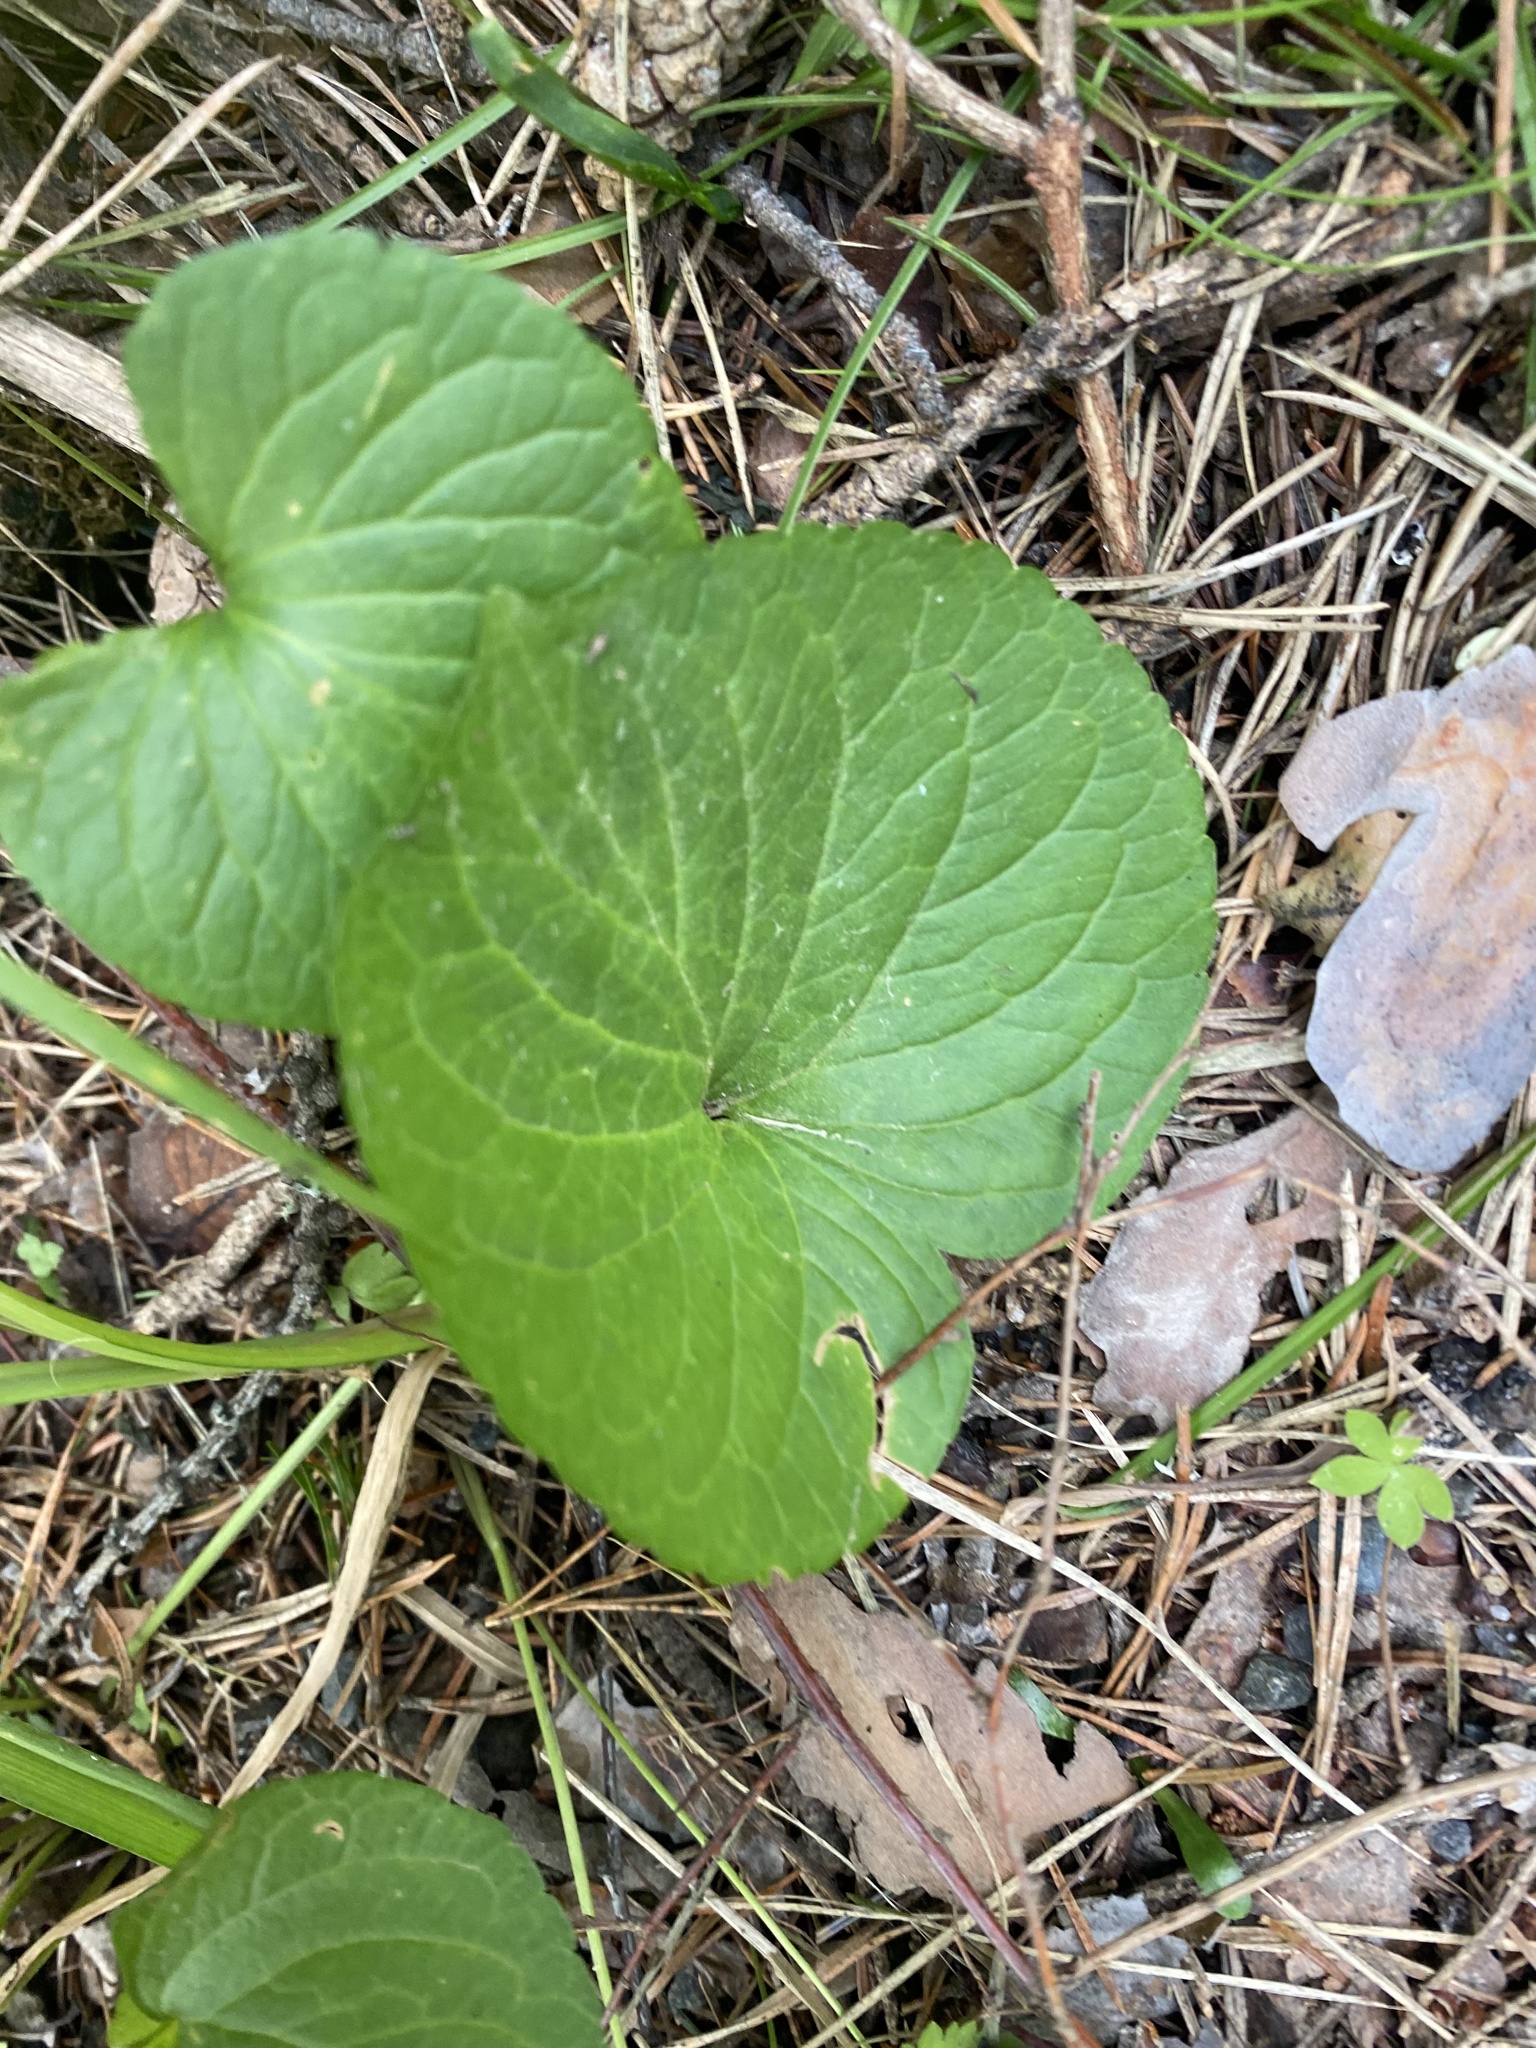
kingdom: Plantae
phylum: Tracheophyta
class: Magnoliopsida
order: Malpighiales
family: Violaceae
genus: Viola
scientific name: Viola mirabilis
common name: Wonder violet
